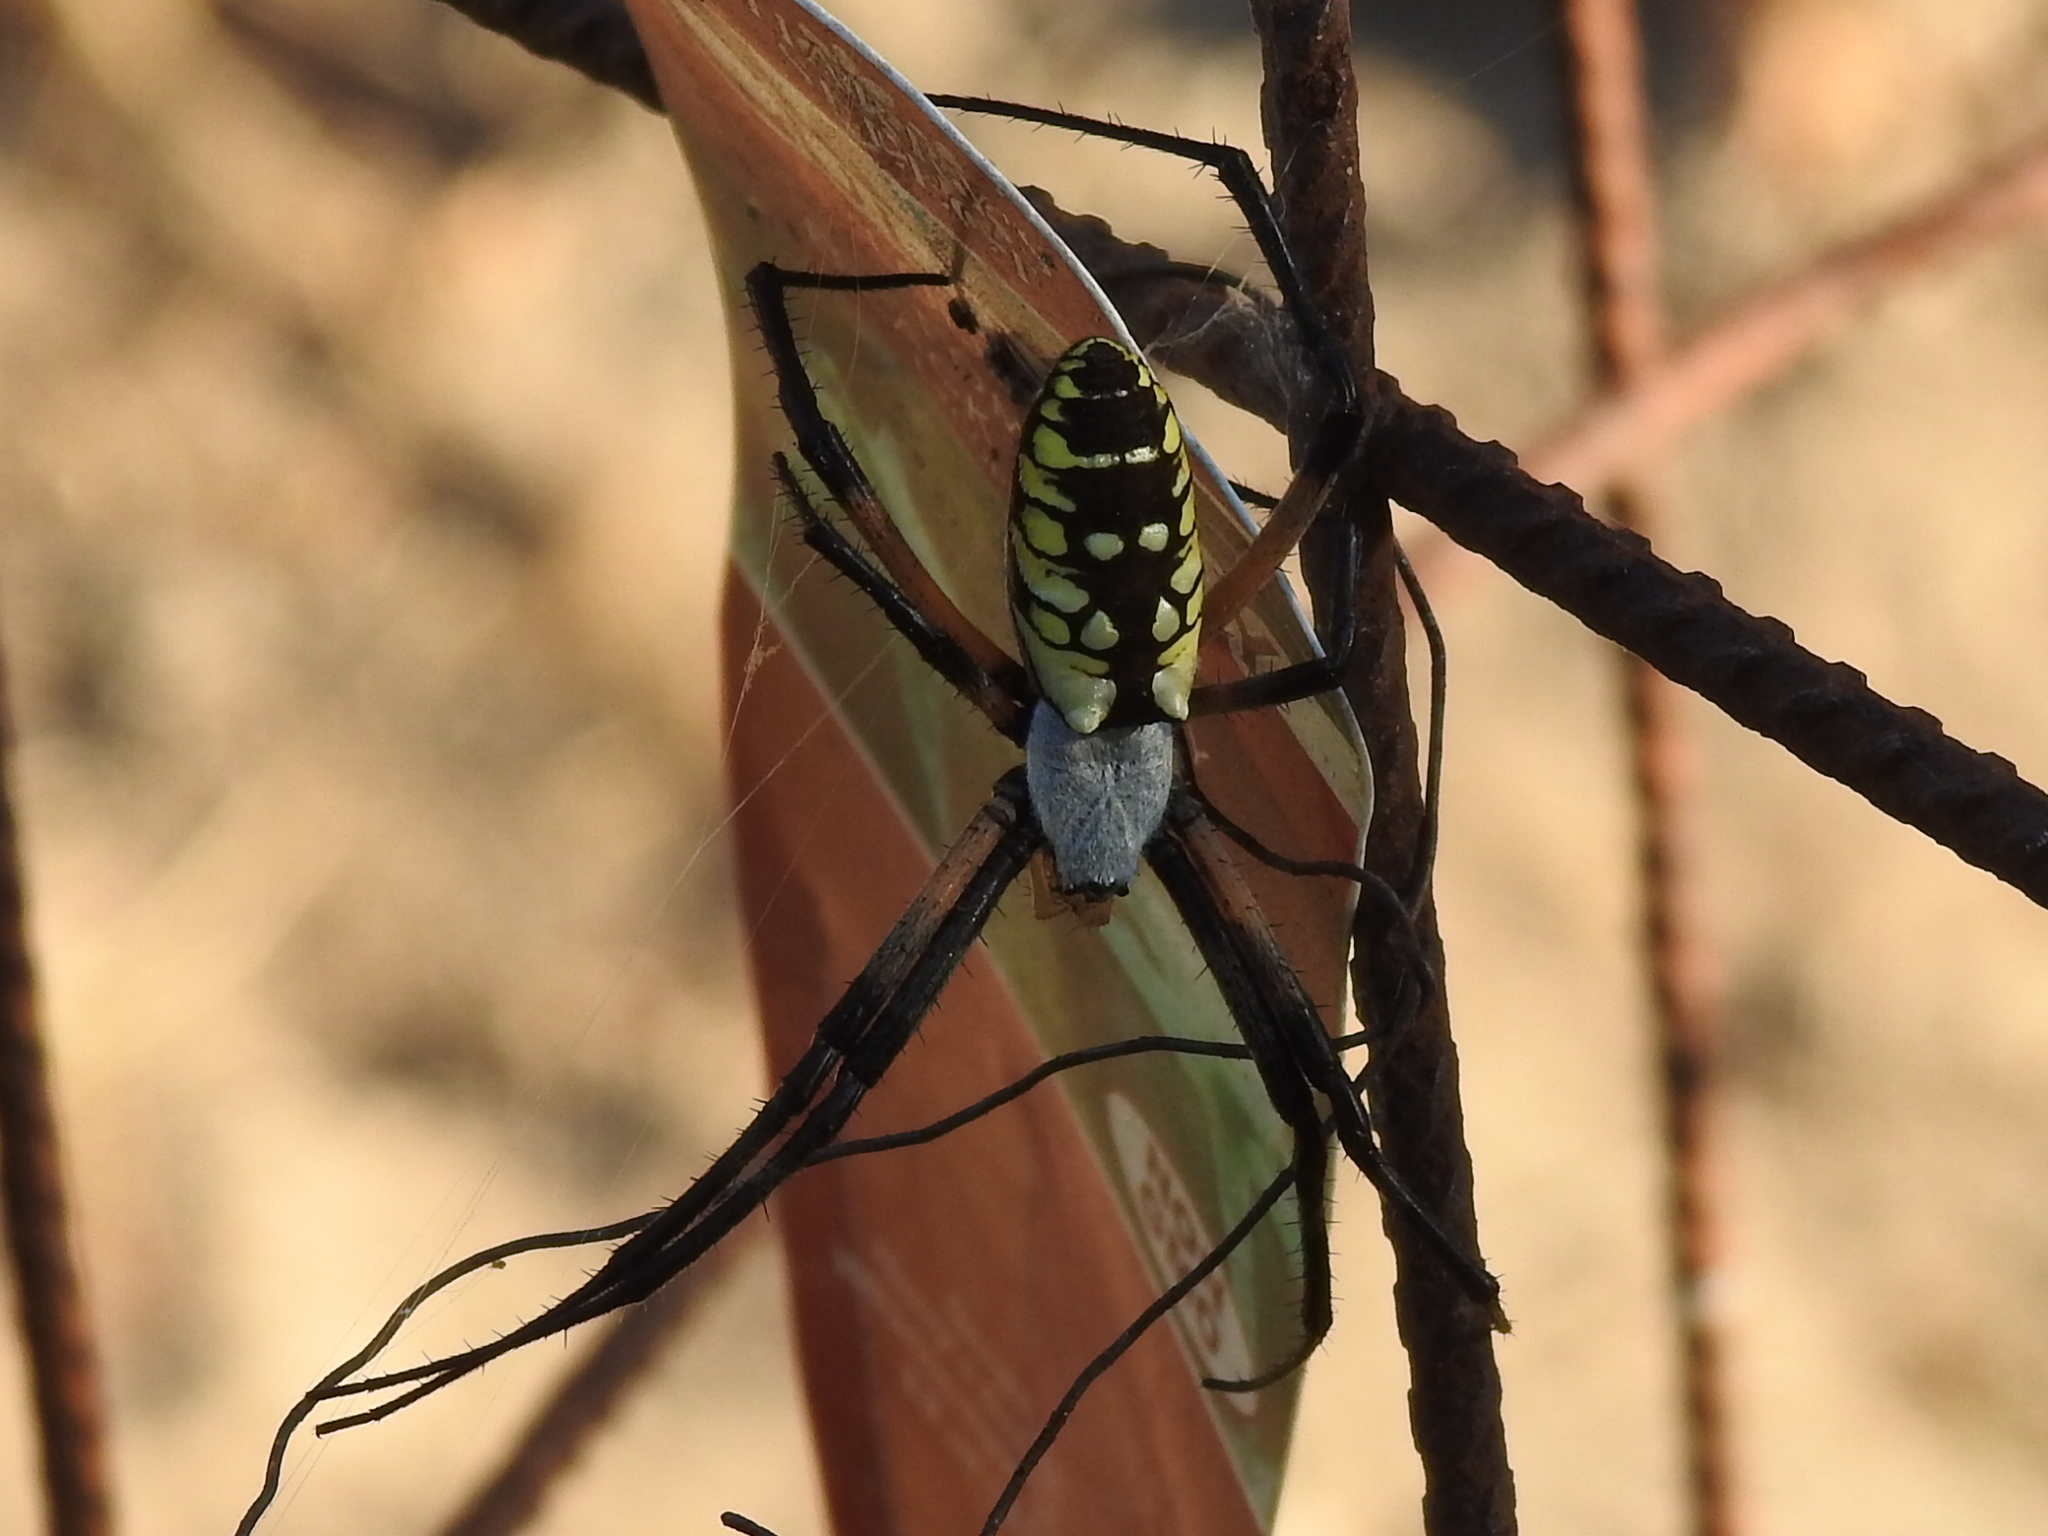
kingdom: Animalia
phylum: Arthropoda
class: Arachnida
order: Araneae
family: Araneidae
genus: Argiope
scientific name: Argiope aurantia
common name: Orb weavers
